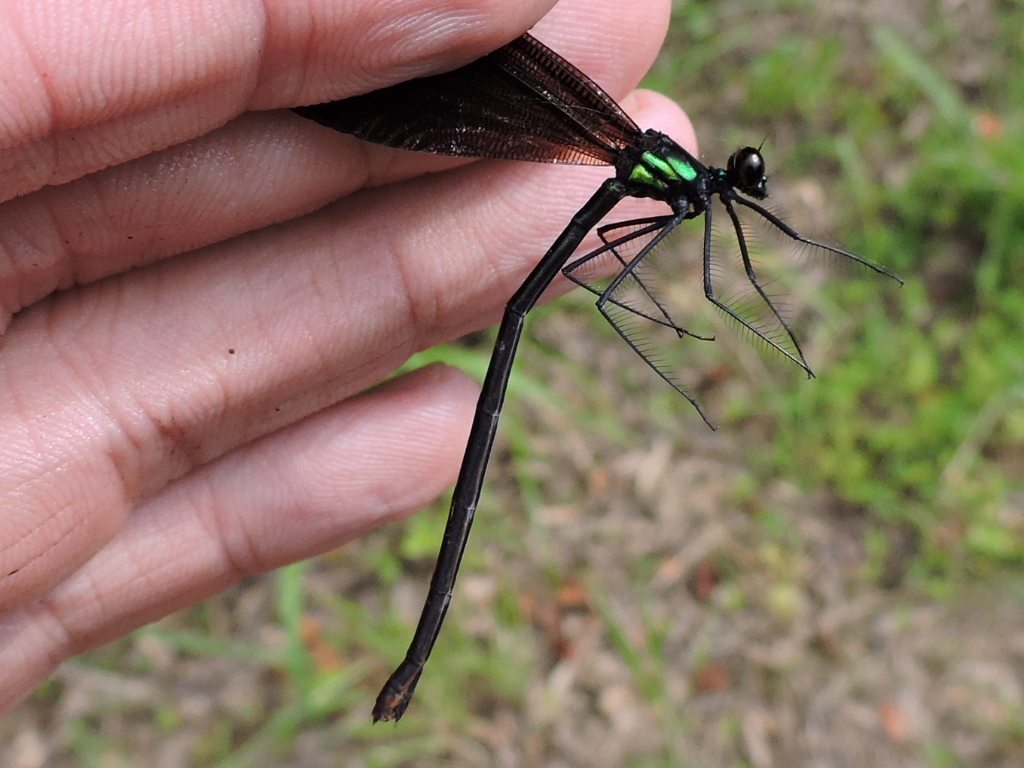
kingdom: Animalia
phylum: Arthropoda
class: Insecta
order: Odonata
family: Calopterygidae
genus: Calopteryx
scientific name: Calopteryx maculata
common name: Ebony jewelwing
